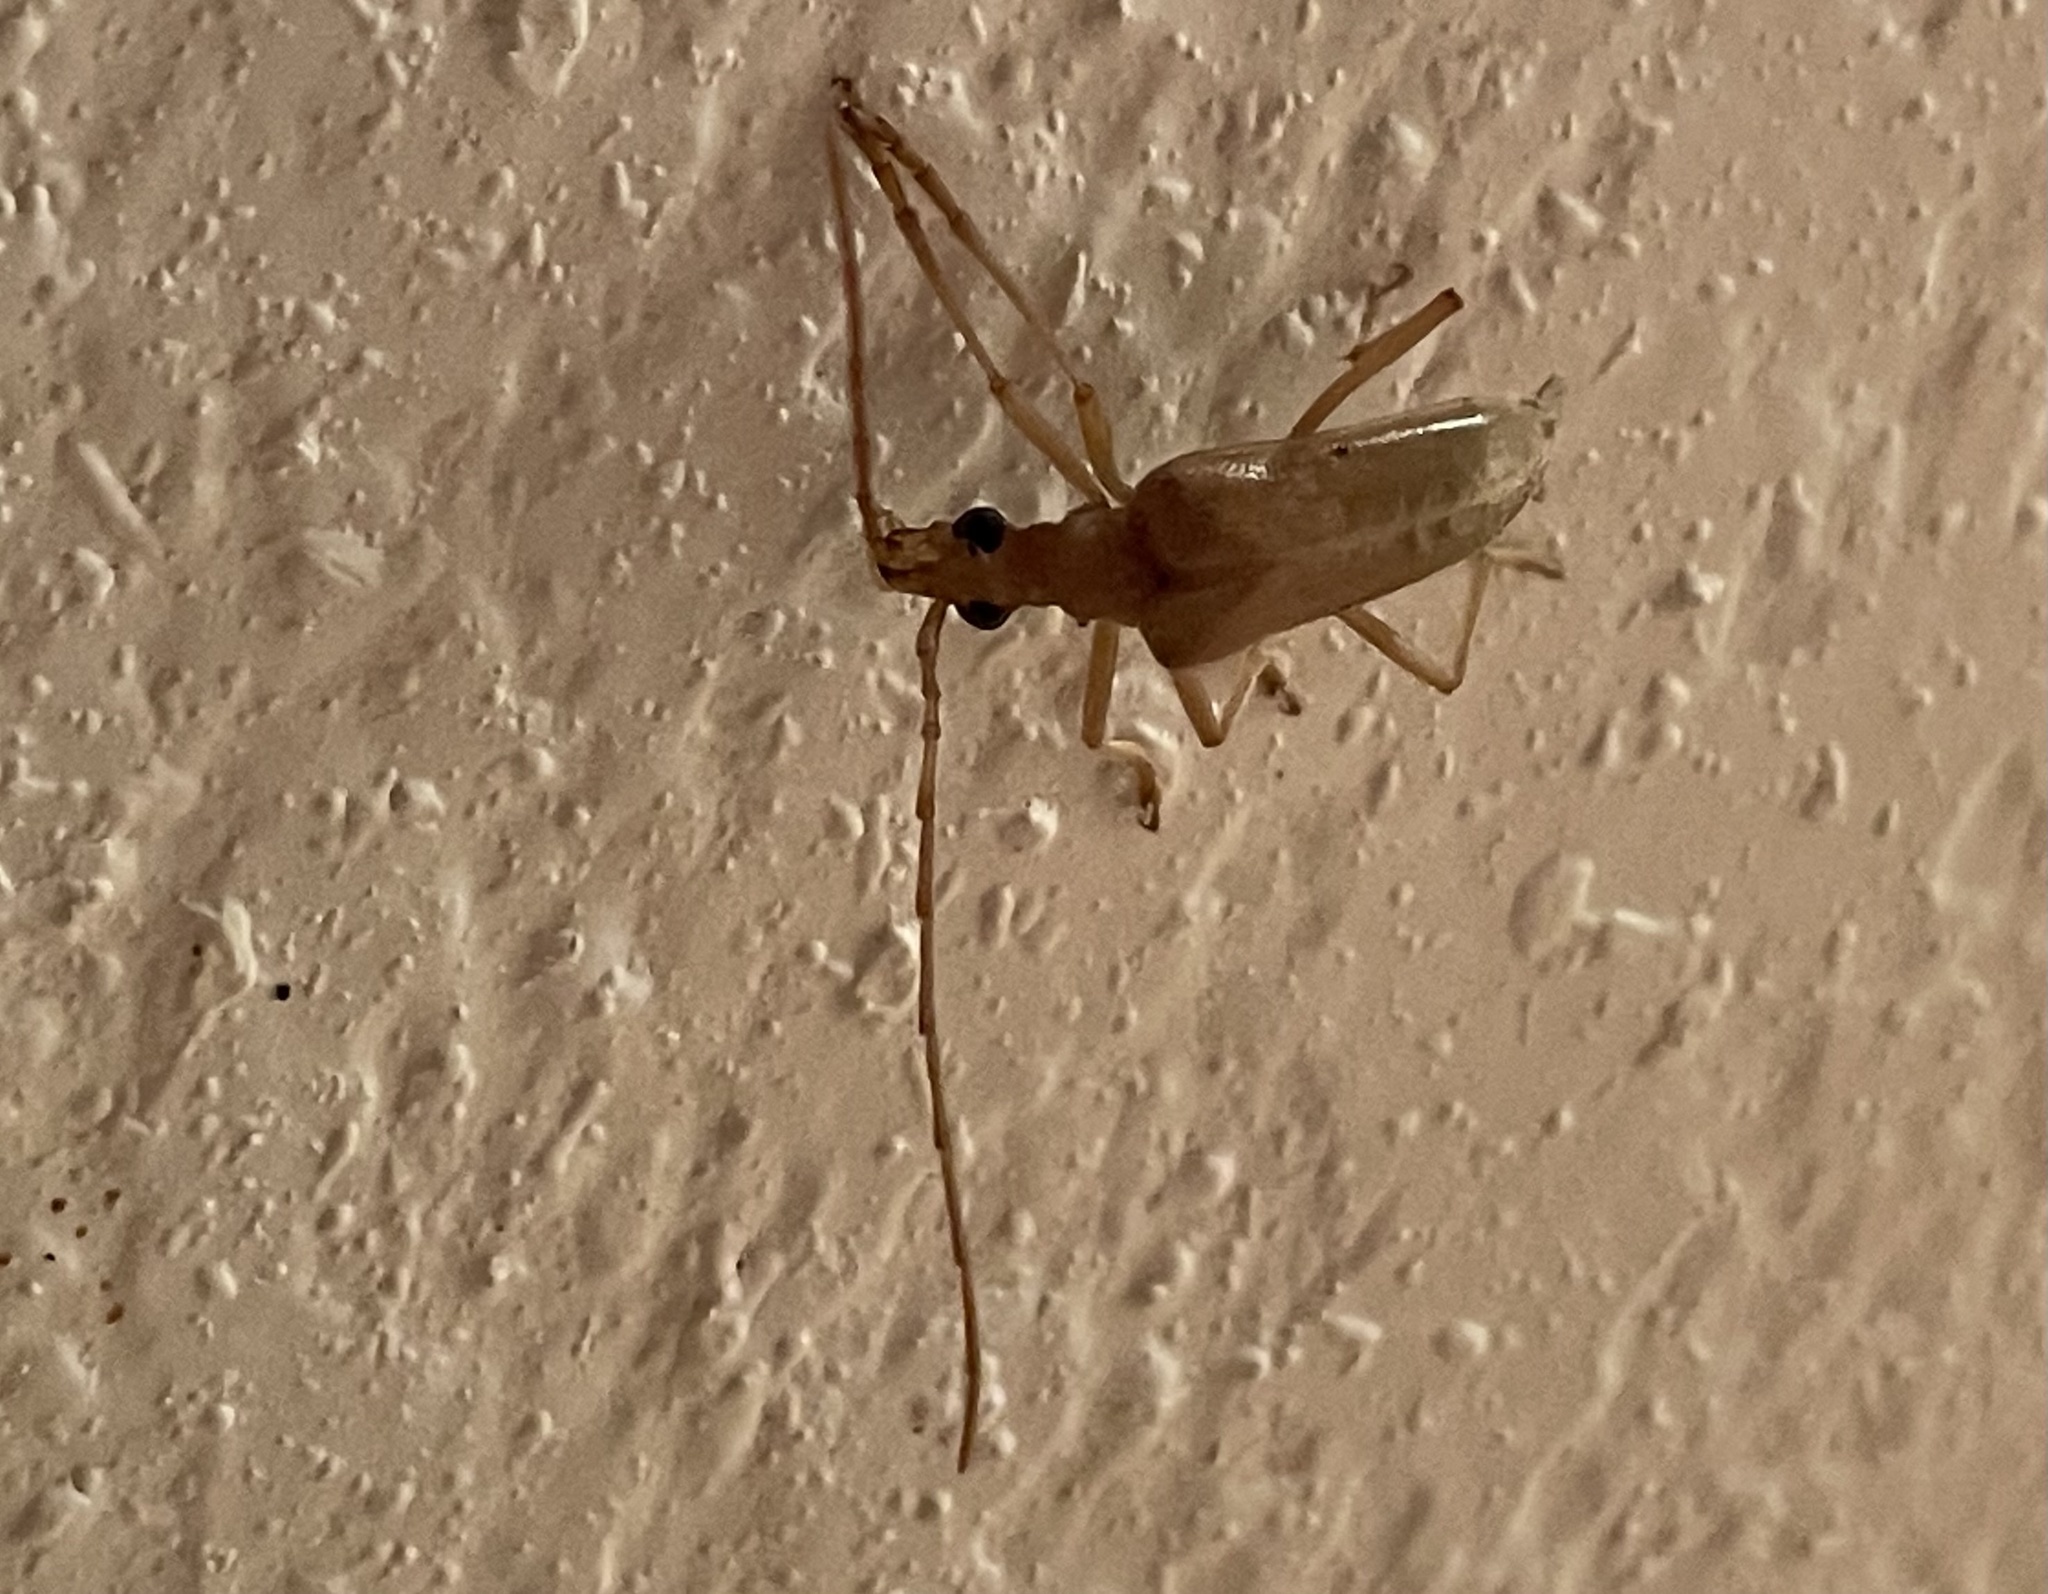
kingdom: Animalia
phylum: Arthropoda
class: Insecta
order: Coleoptera
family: Cerambycidae
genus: Centrodera
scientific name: Centrodera spurca
